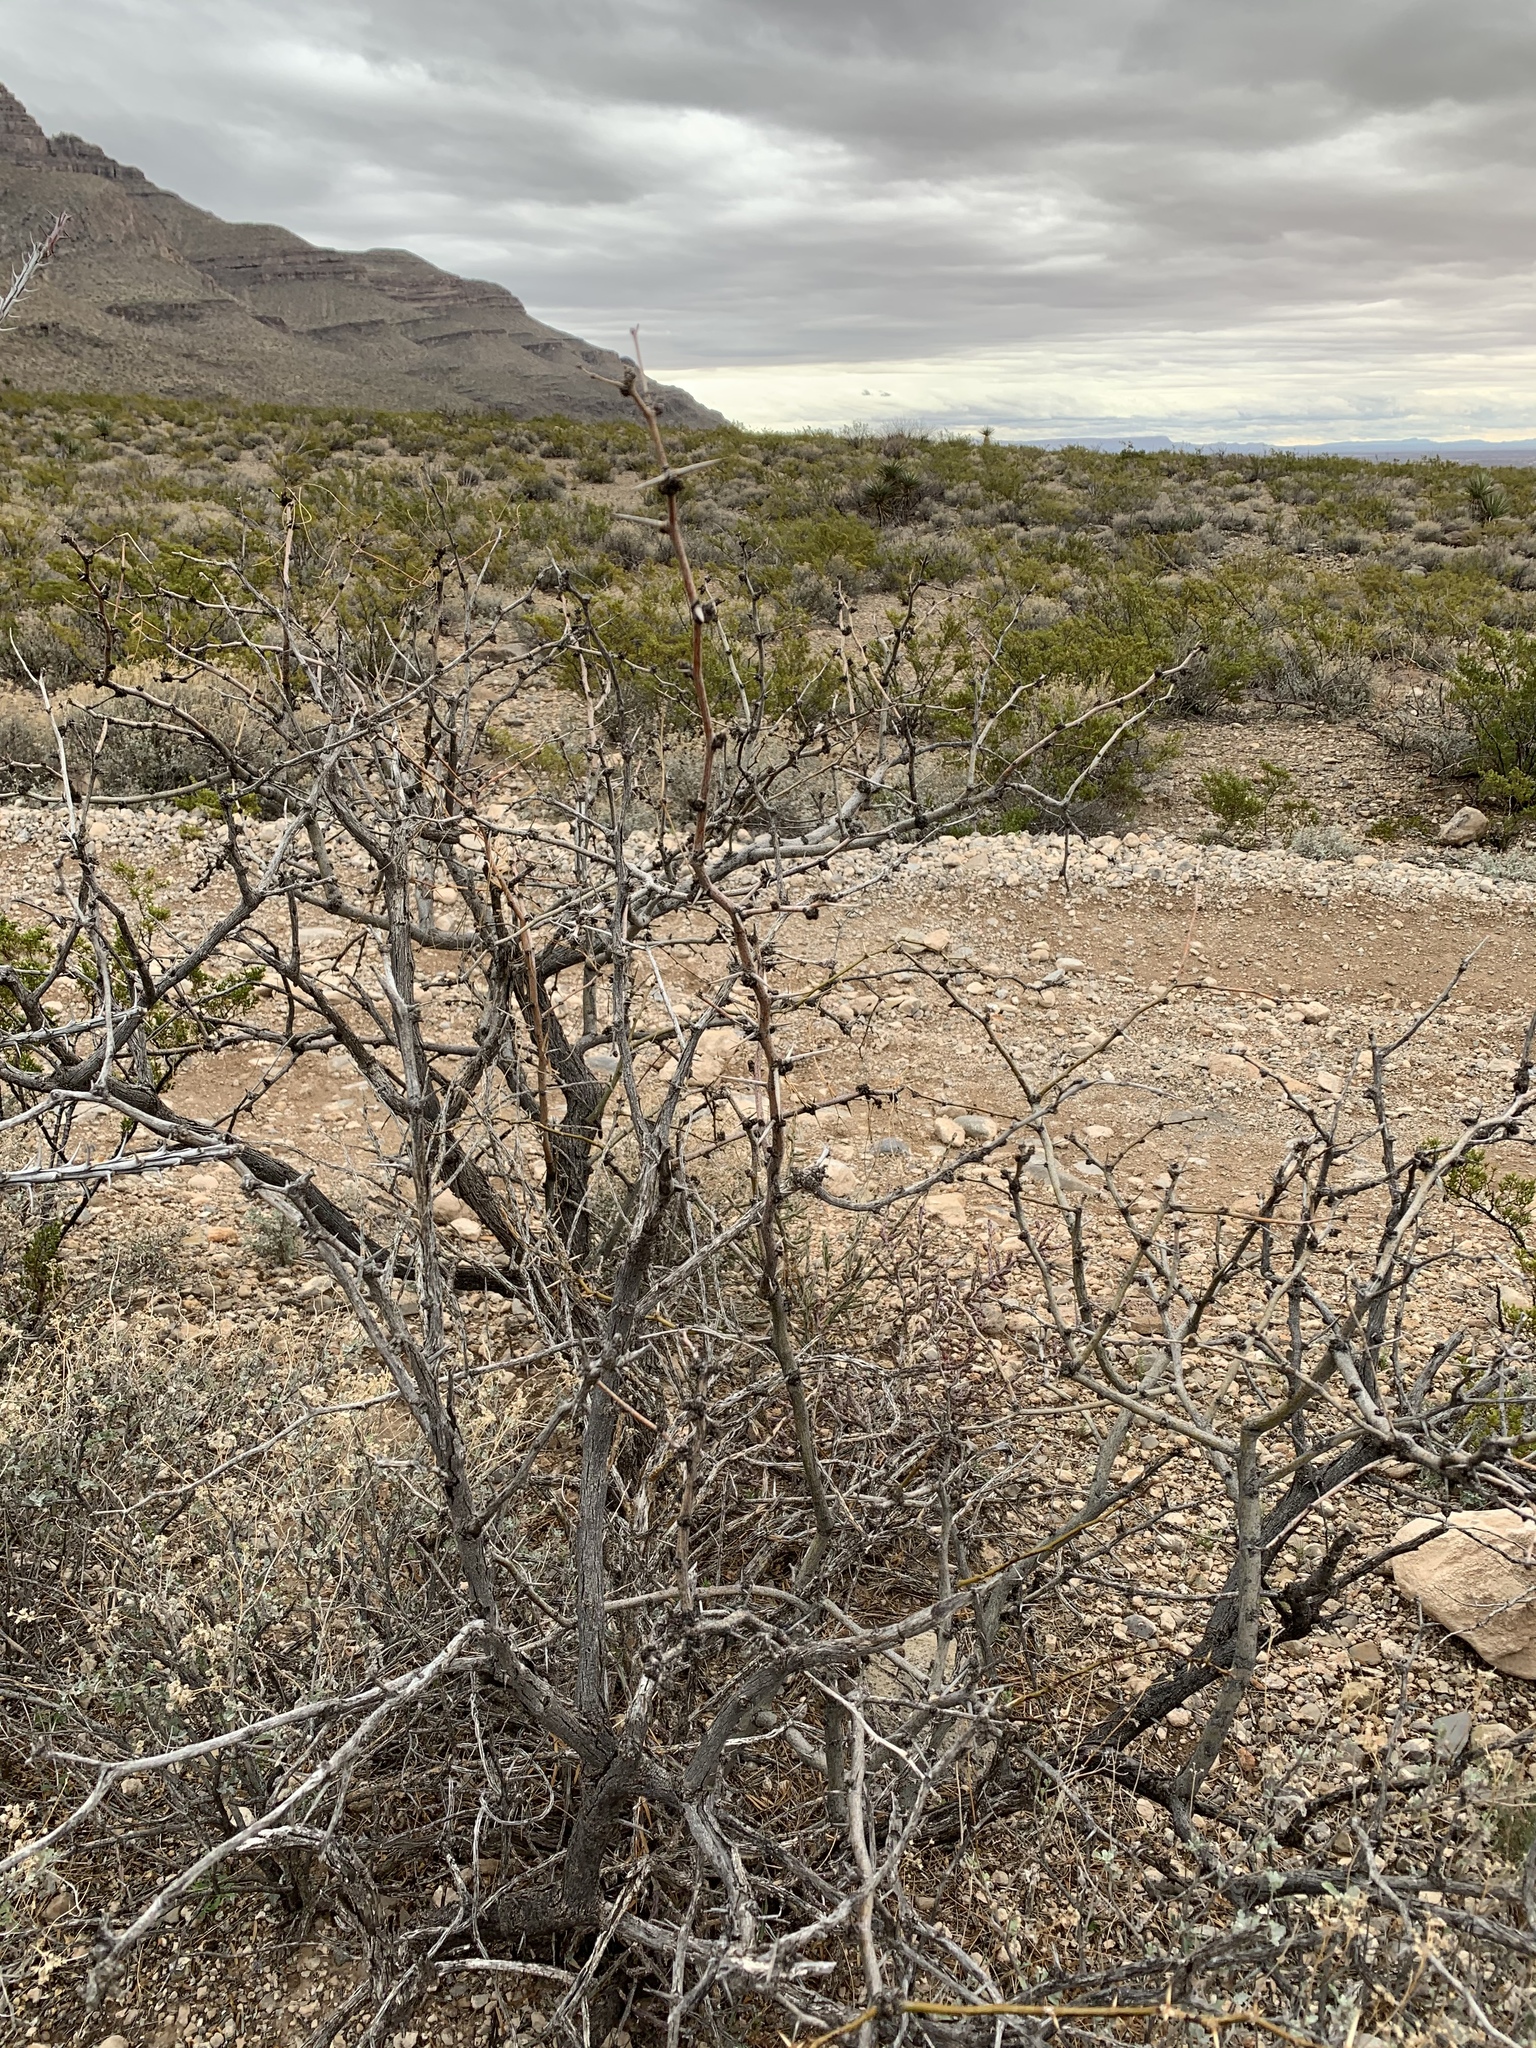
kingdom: Plantae
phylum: Tracheophyta
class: Magnoliopsida
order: Fabales
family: Fabaceae
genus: Prosopis
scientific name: Prosopis glandulosa
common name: Honey mesquite
